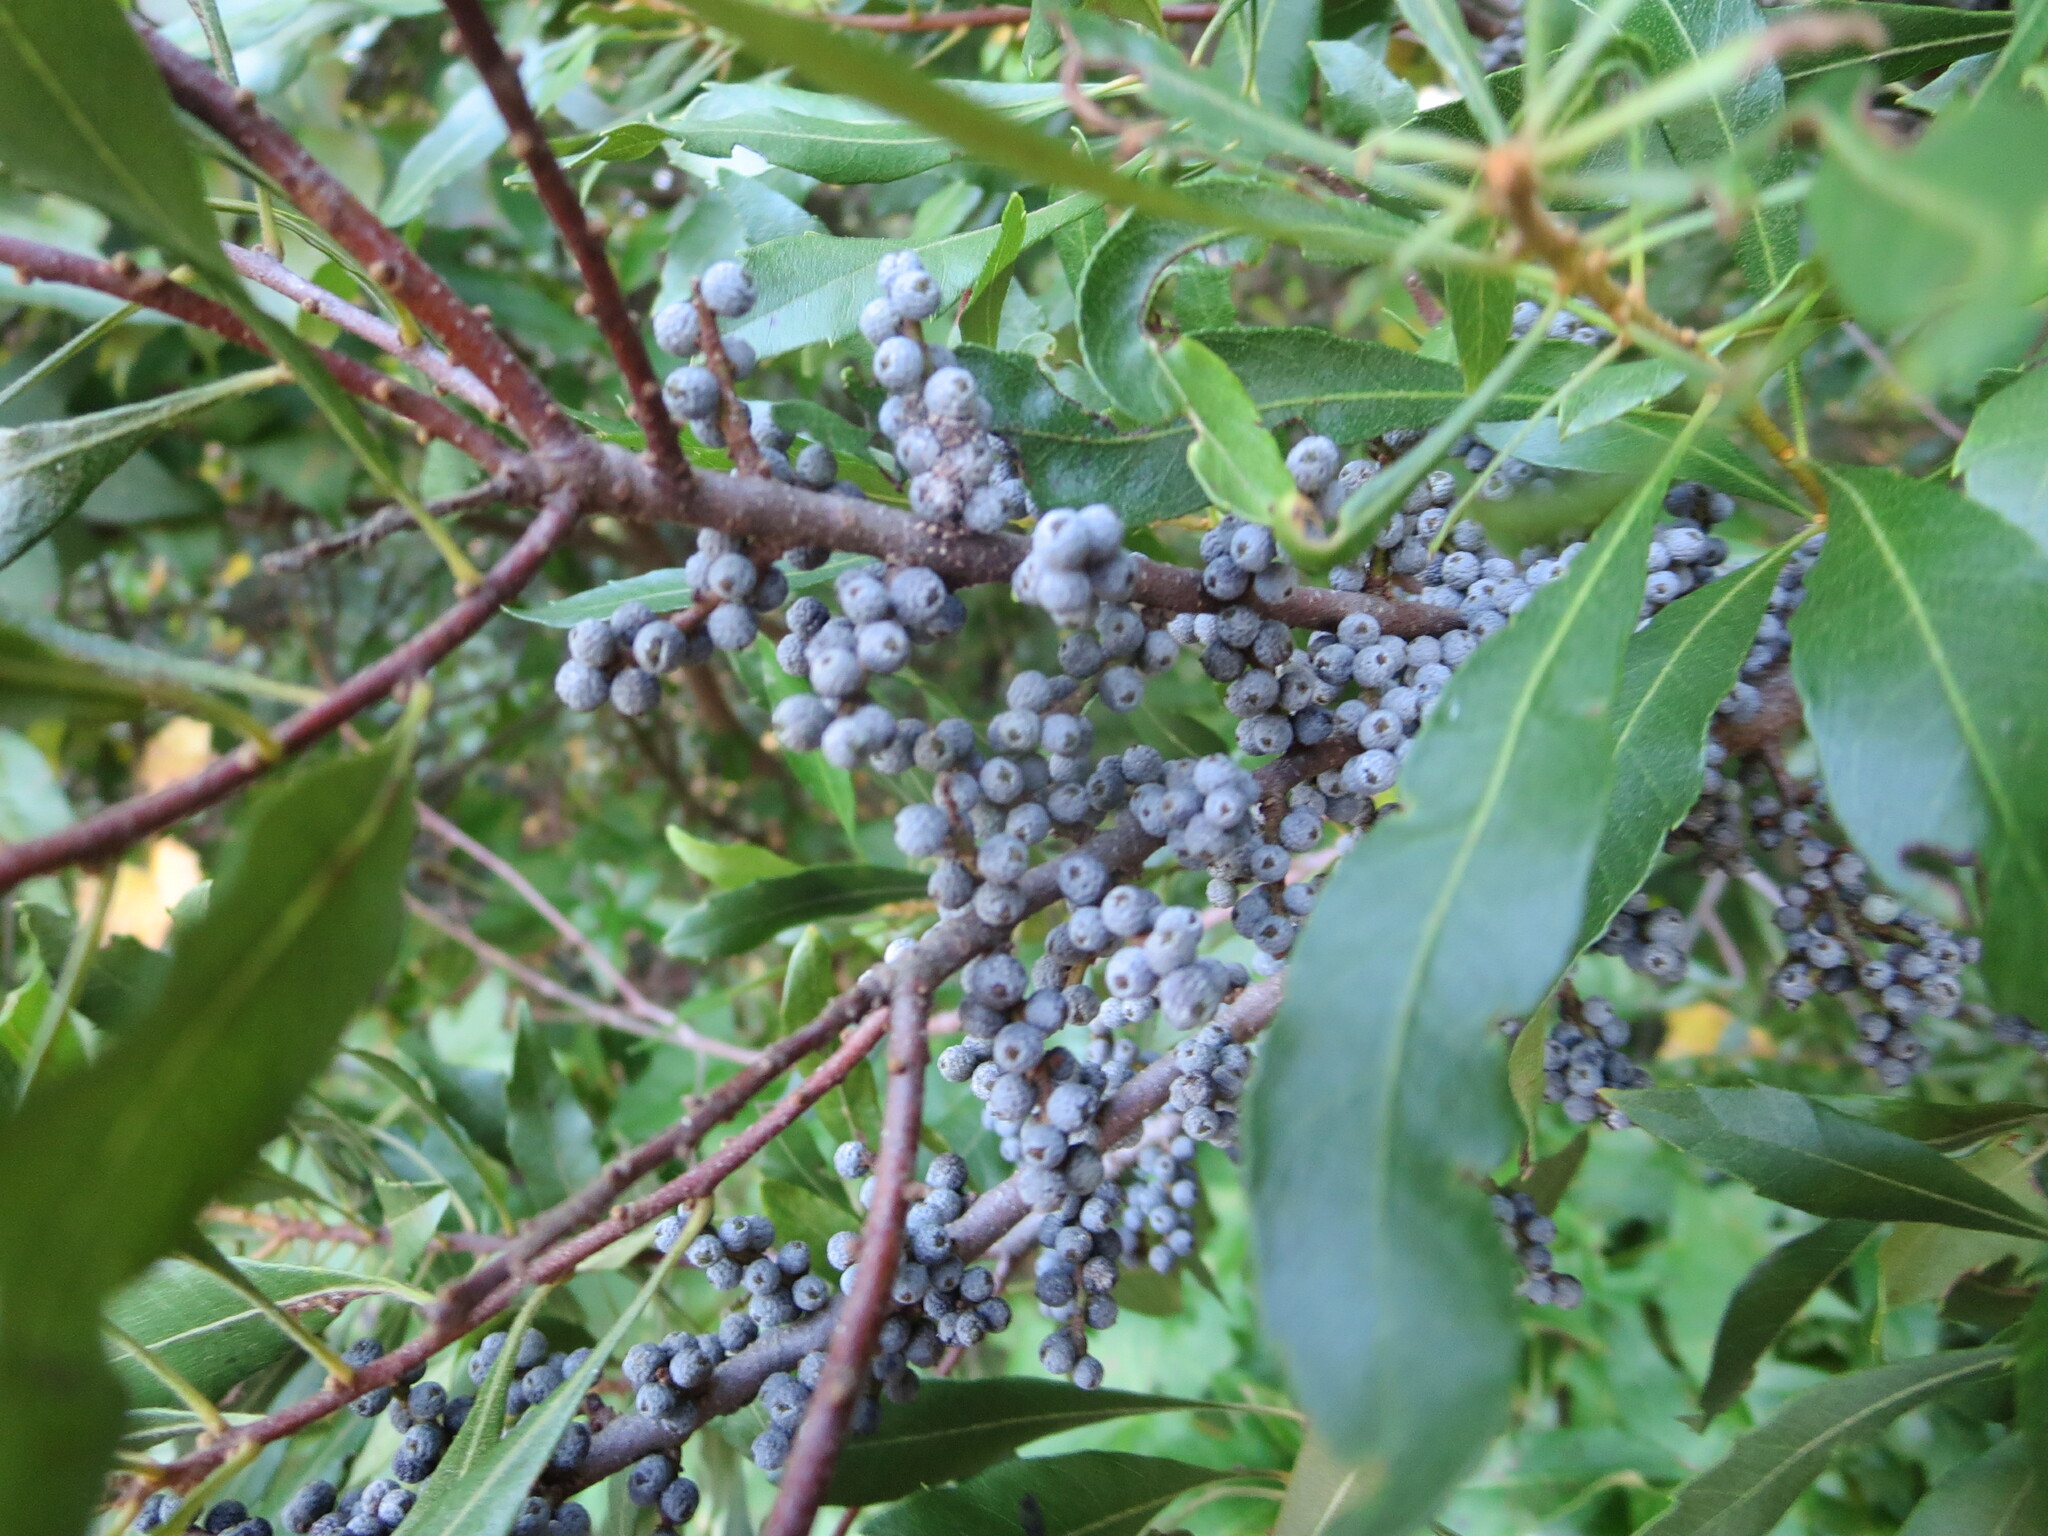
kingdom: Plantae
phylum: Tracheophyta
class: Magnoliopsida
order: Fagales
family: Myricaceae
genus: Morella
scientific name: Morella cerifera
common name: Wax myrtle
